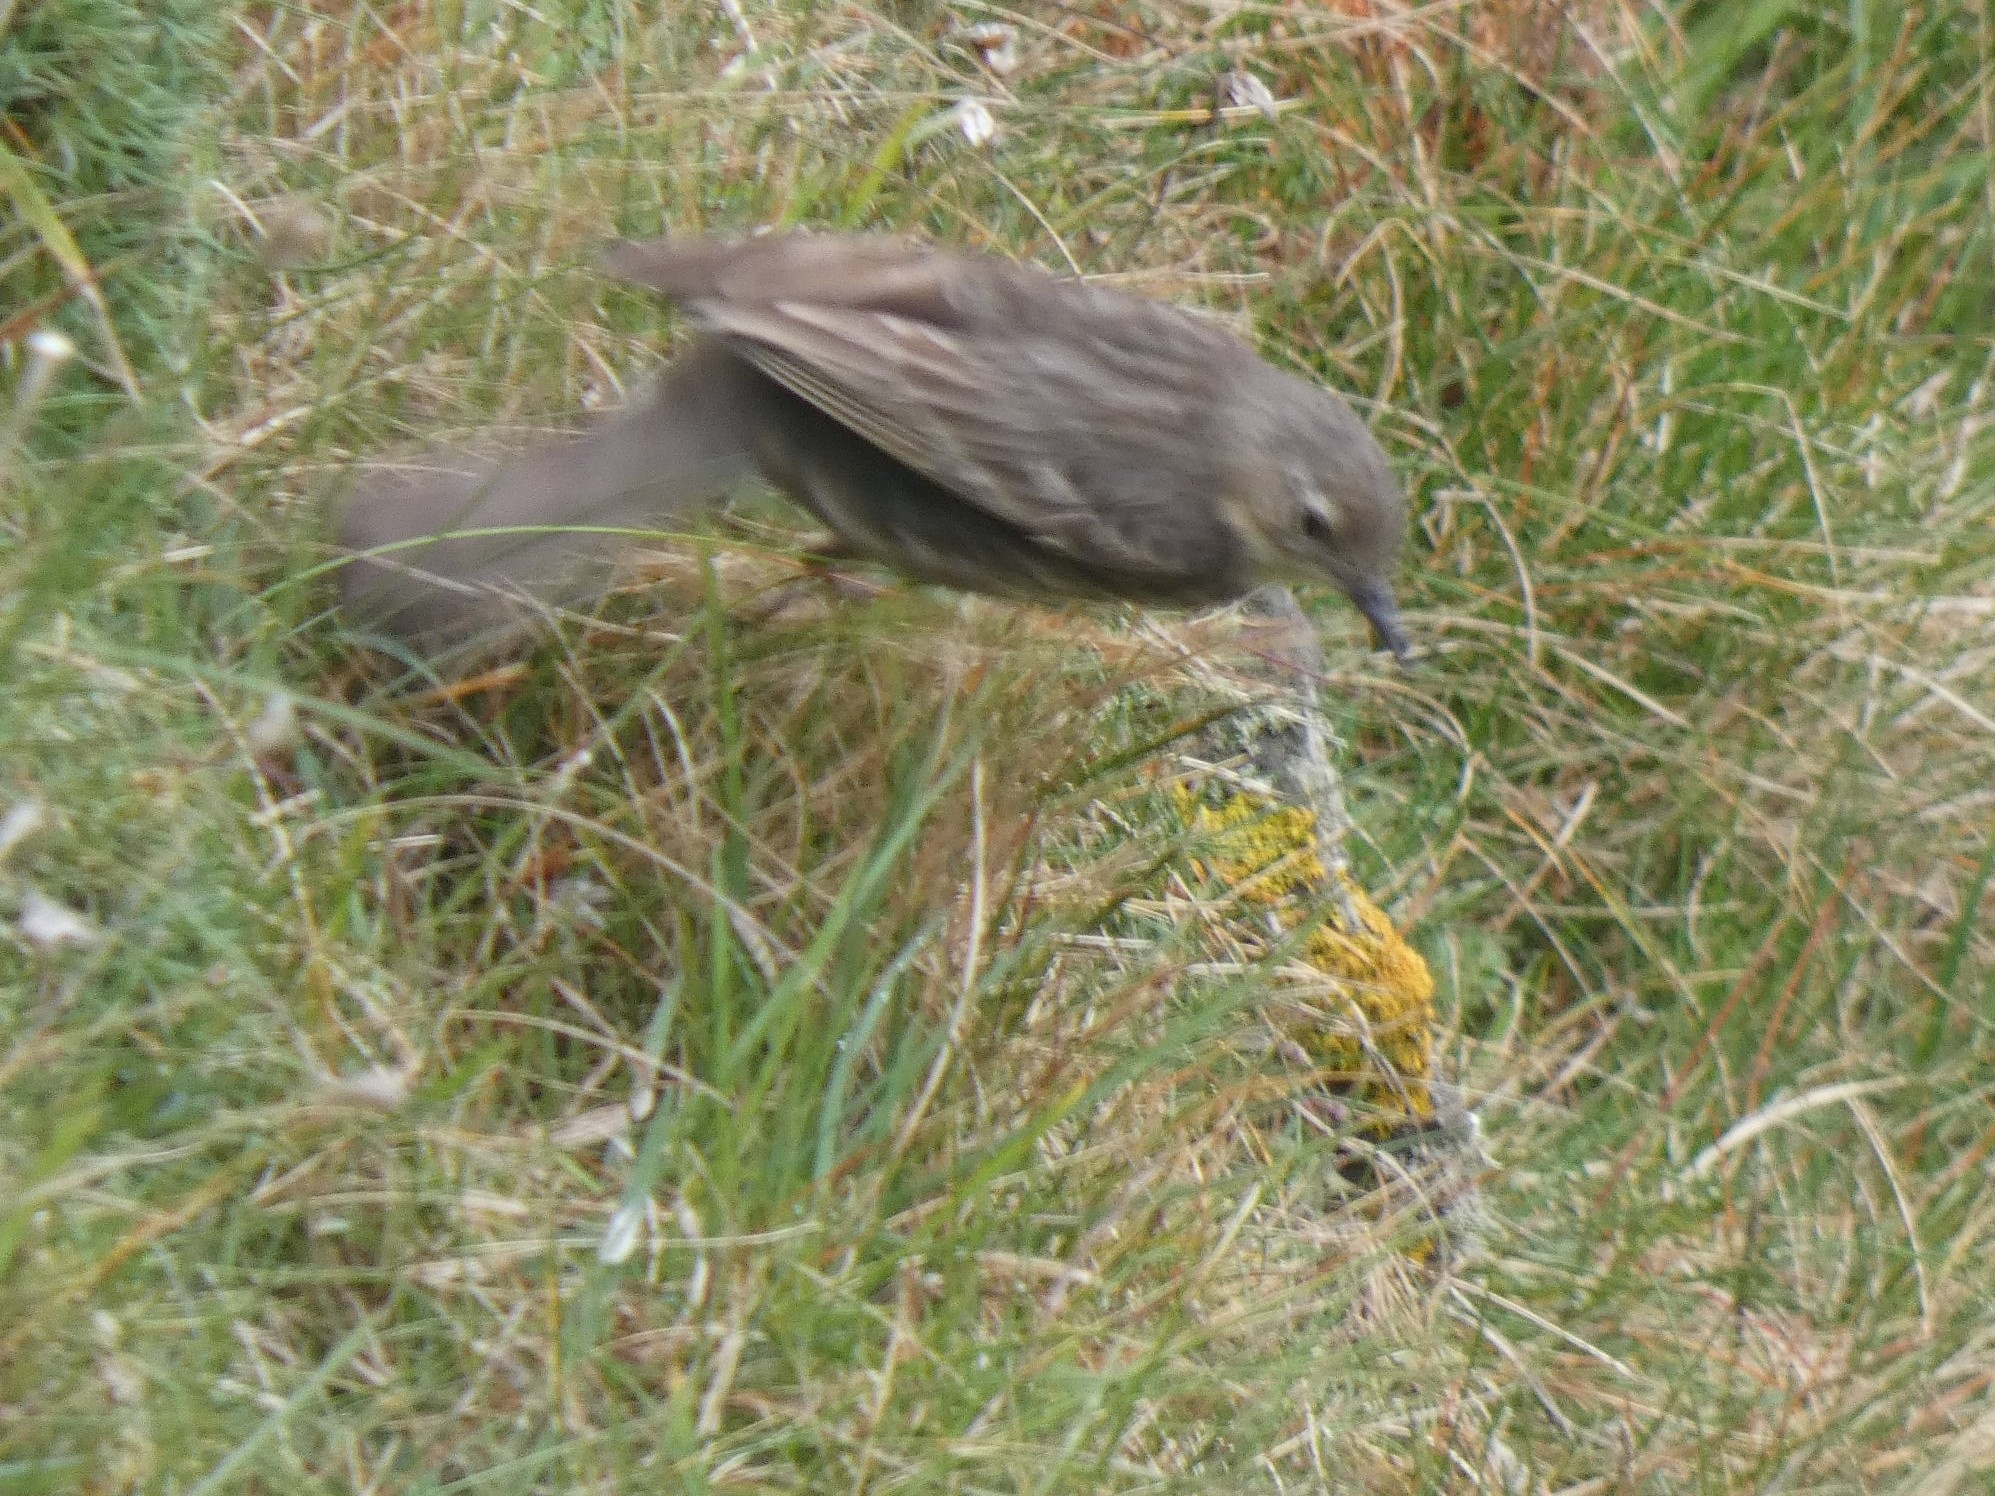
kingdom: Animalia
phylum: Chordata
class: Aves
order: Passeriformes
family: Motacillidae
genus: Anthus
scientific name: Anthus petrosus
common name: Eurasian rock pipit
